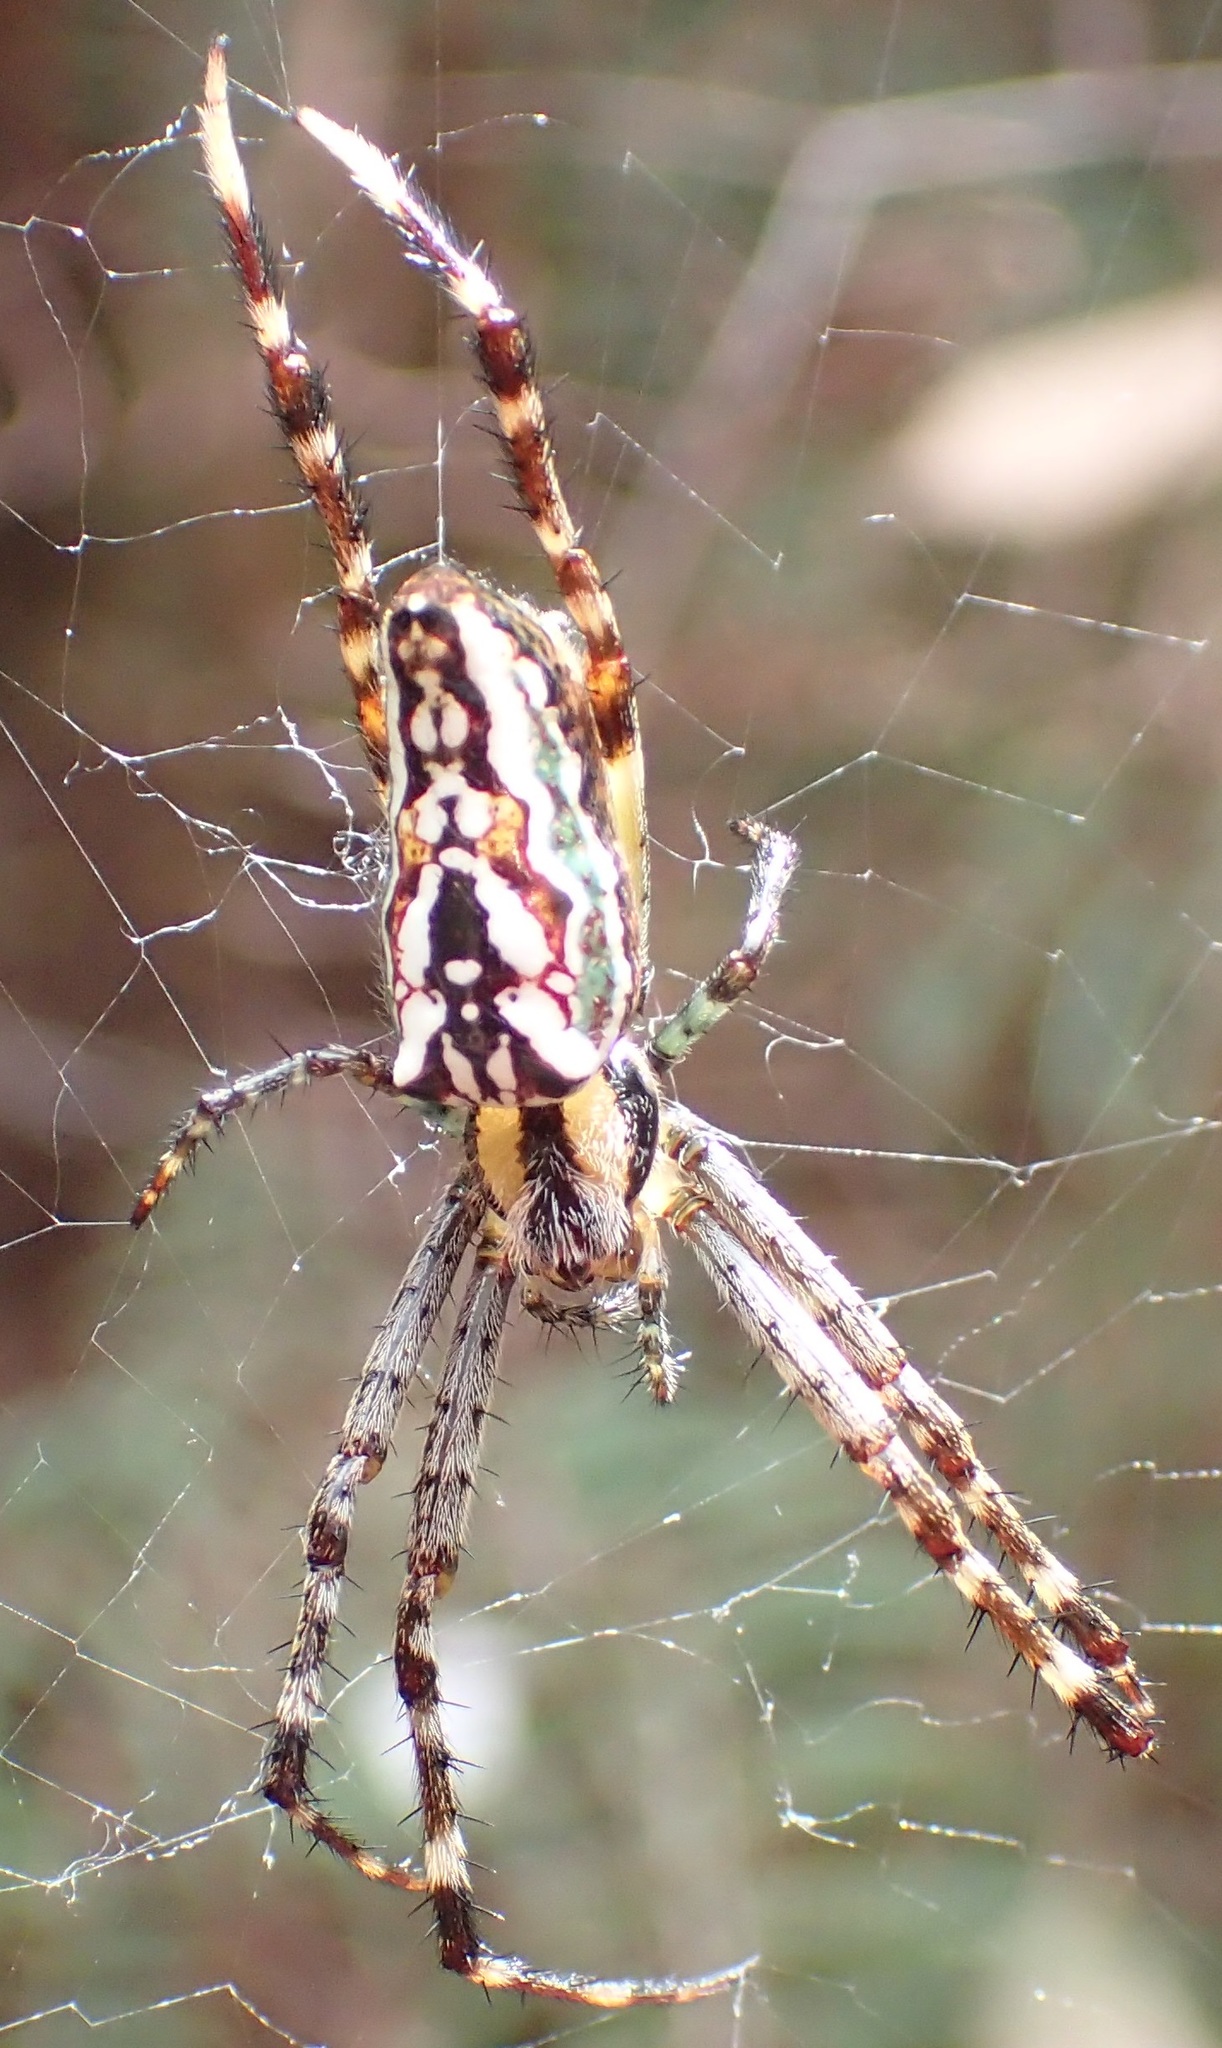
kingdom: Animalia
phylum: Arthropoda
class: Arachnida
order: Araneae
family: Araneidae
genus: Plebs
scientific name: Plebs bradleyi
